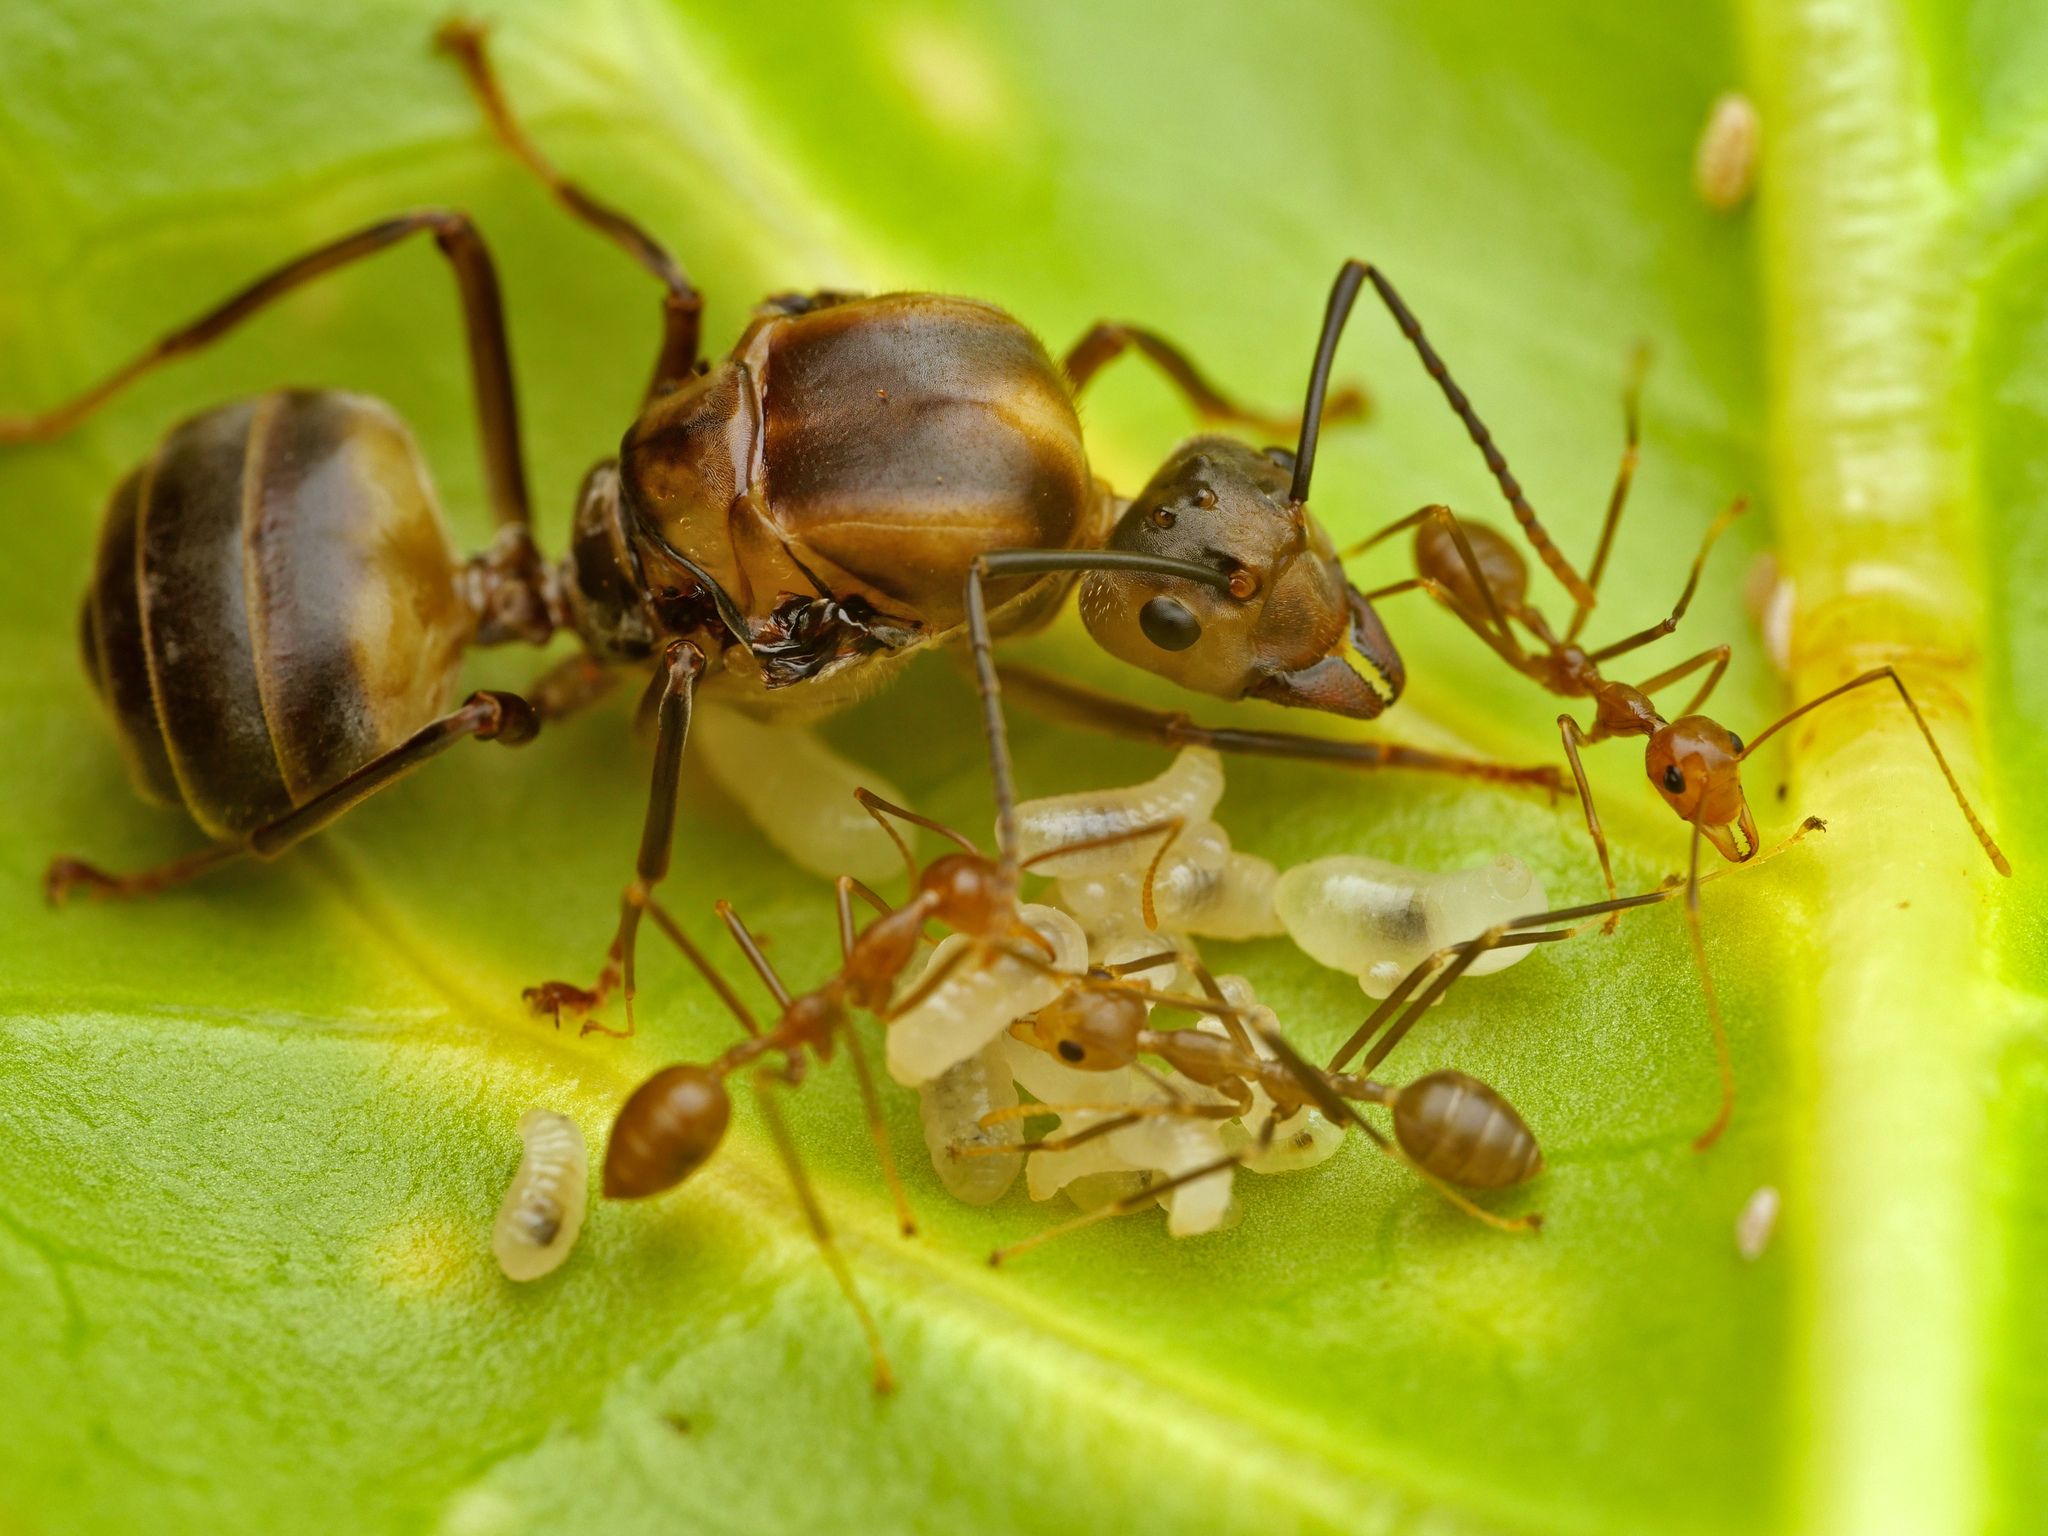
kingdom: Animalia
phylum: Arthropoda
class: Insecta
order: Hymenoptera
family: Formicidae
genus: Oecophylla
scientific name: Oecophylla smaragdina
